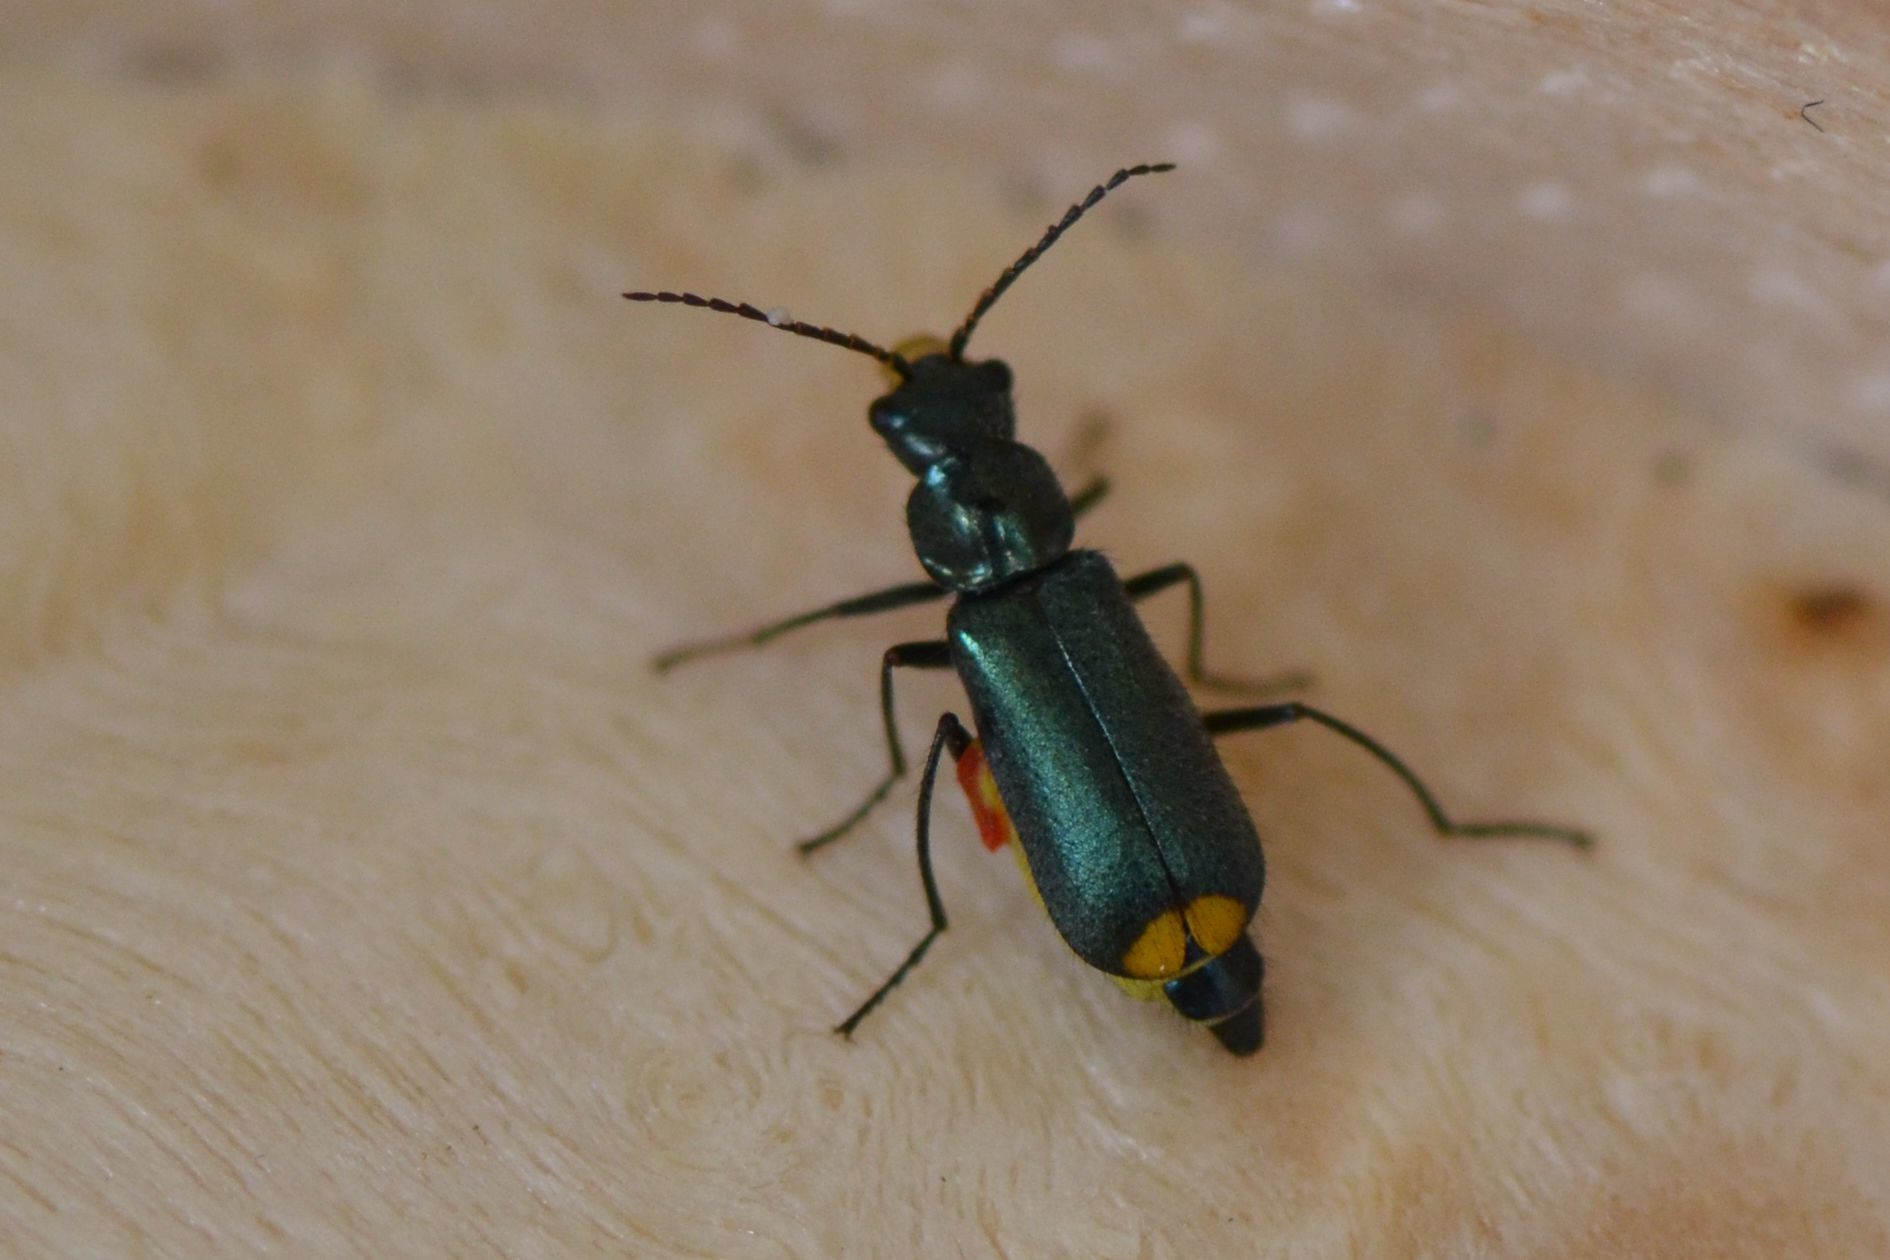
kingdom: Animalia
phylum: Arthropoda
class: Insecta
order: Coleoptera
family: Malachiidae
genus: Clanoptilus
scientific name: Clanoptilus marginellus
